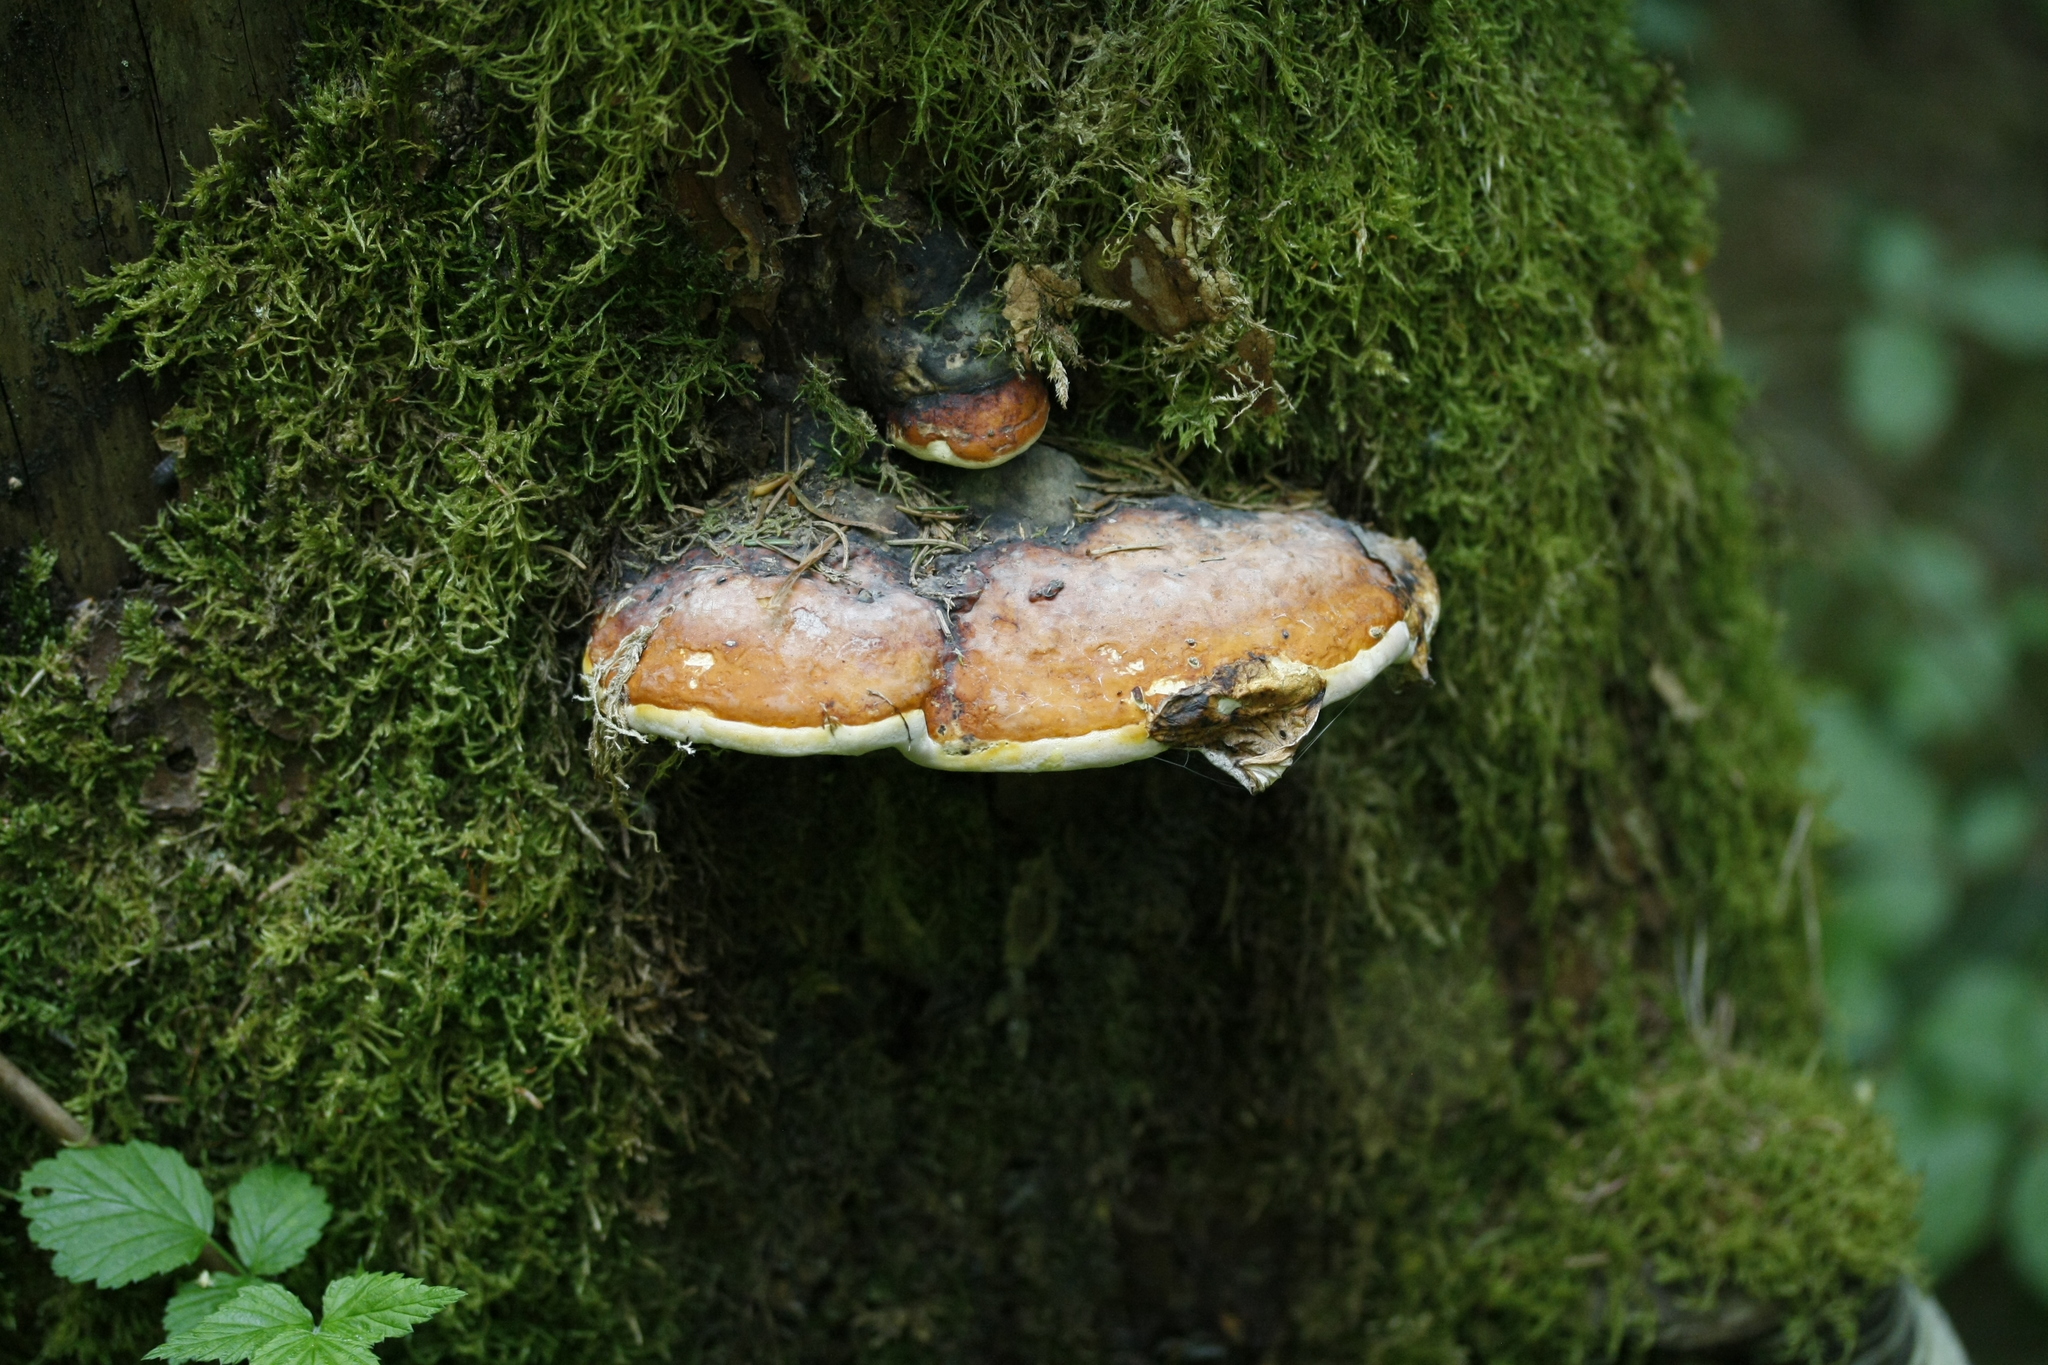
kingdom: Fungi
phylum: Basidiomycota
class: Agaricomycetes
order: Polyporales
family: Fomitopsidaceae
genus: Fomitopsis
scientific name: Fomitopsis pinicola
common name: Red-belted bracket
